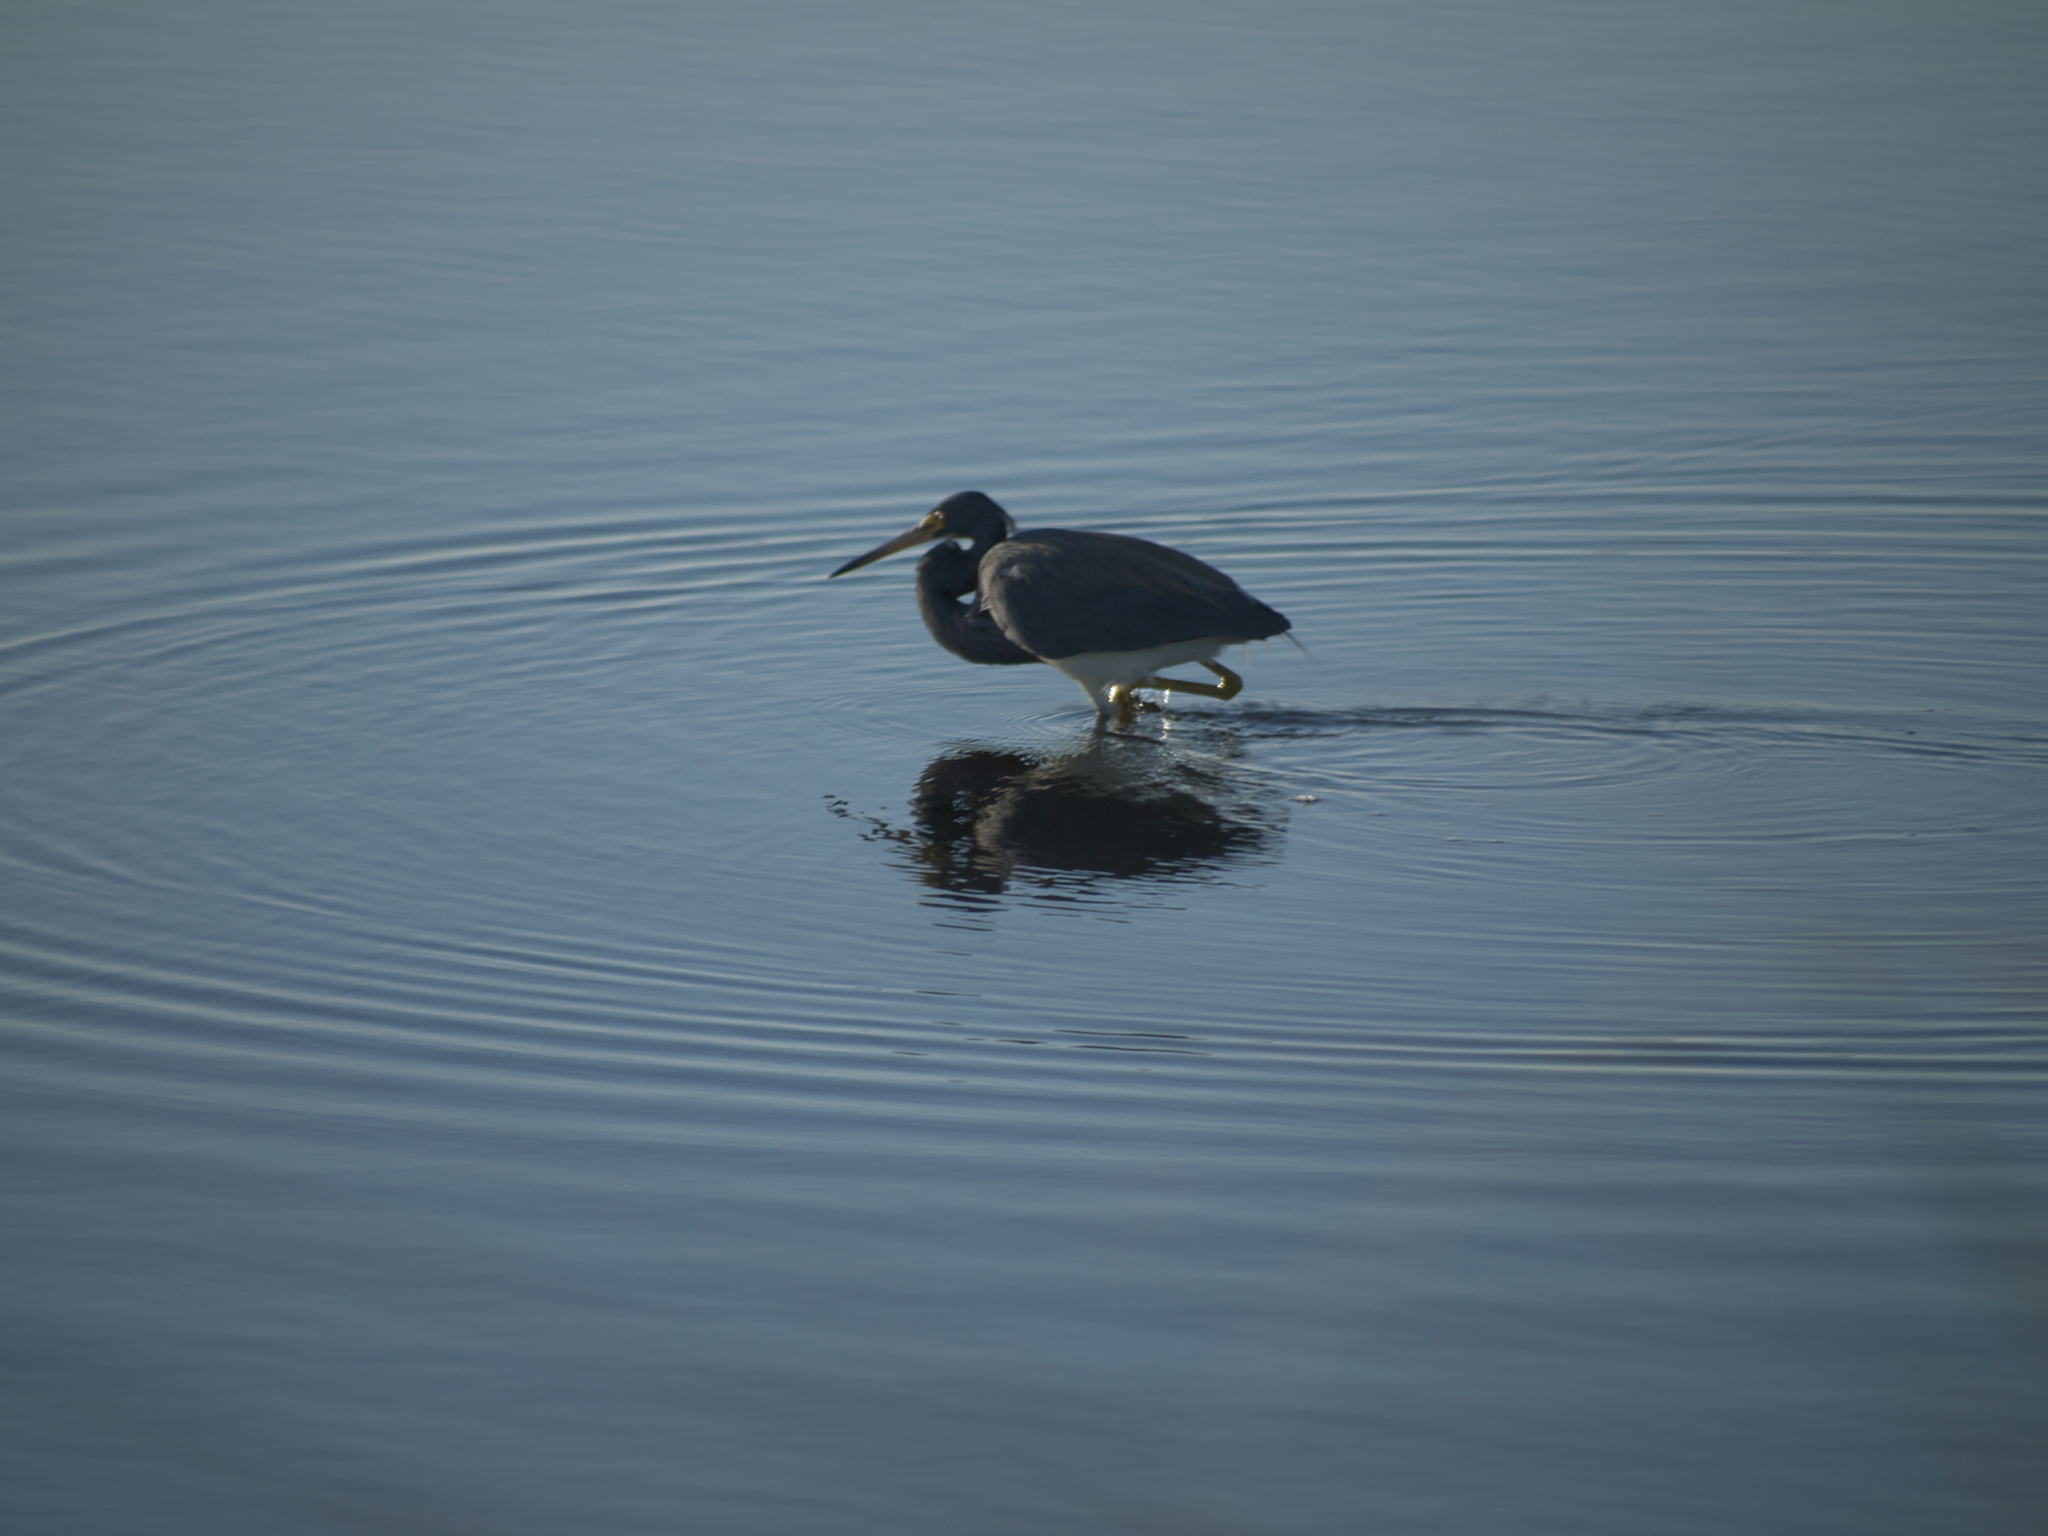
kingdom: Animalia
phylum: Chordata
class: Aves
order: Pelecaniformes
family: Ardeidae
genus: Egretta
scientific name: Egretta tricolor
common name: Tricolored heron
